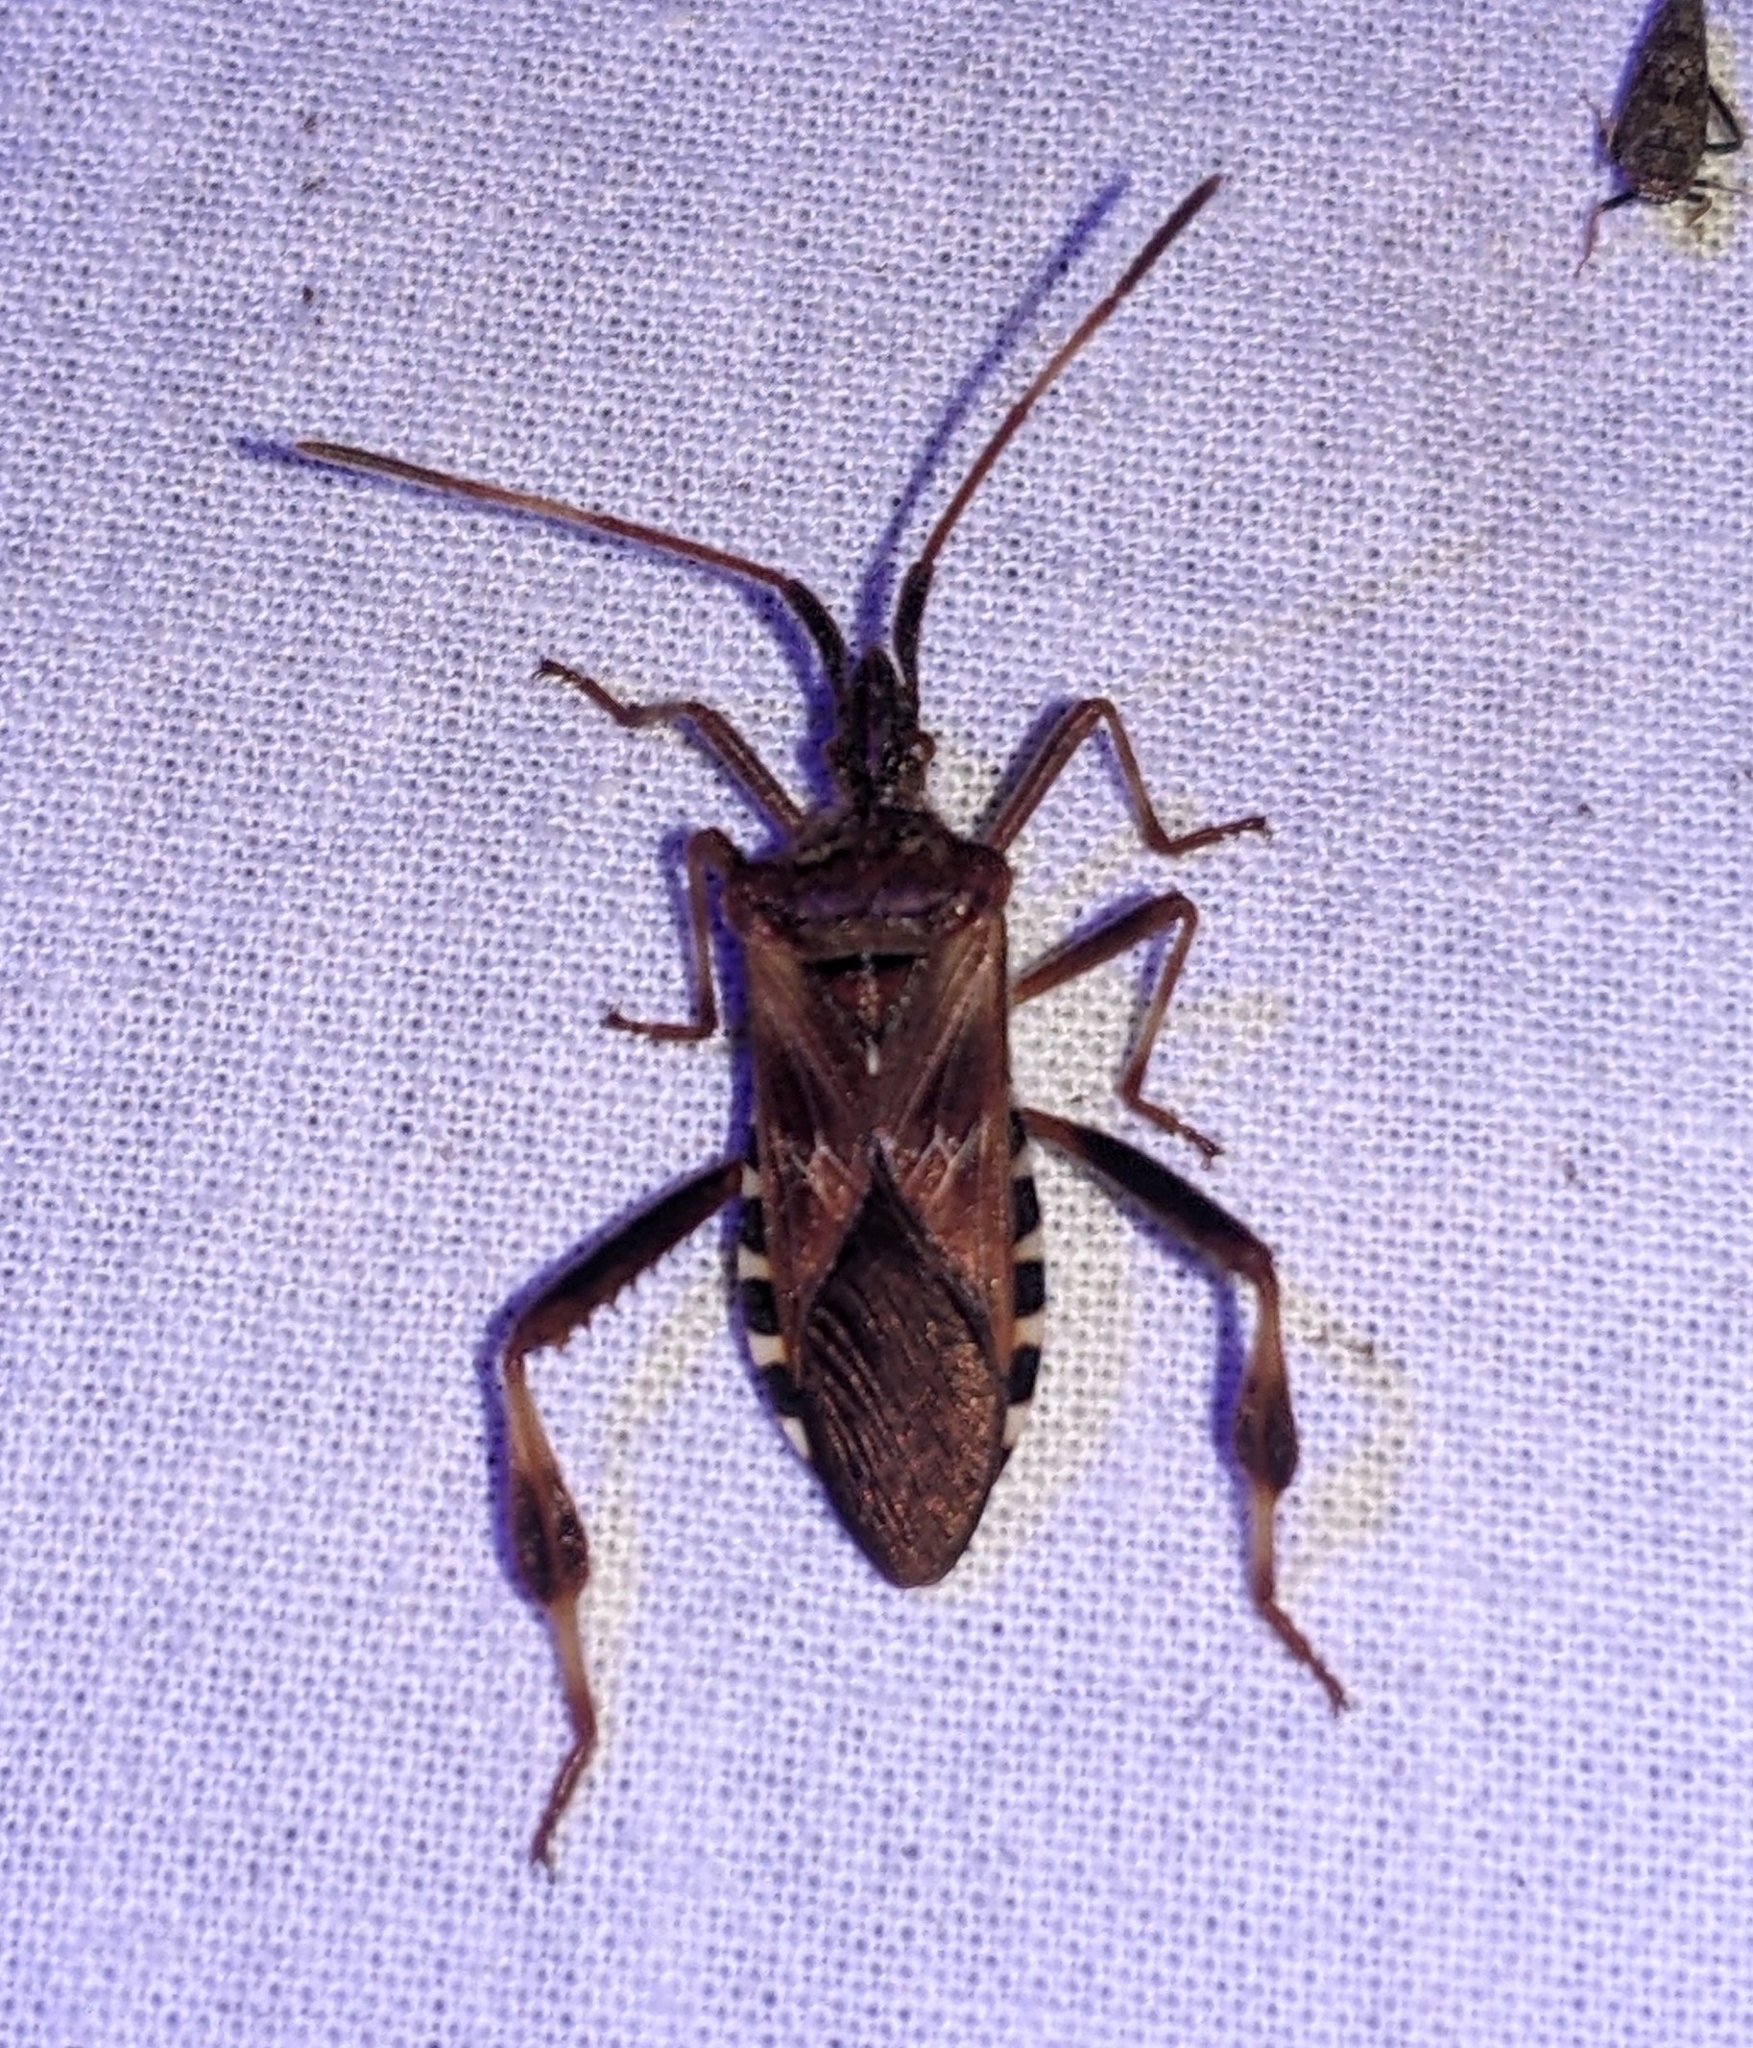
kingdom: Animalia
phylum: Arthropoda
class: Insecta
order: Hemiptera
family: Coreidae
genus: Leptoglossus
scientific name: Leptoglossus occidentalis
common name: Western conifer-seed bug
